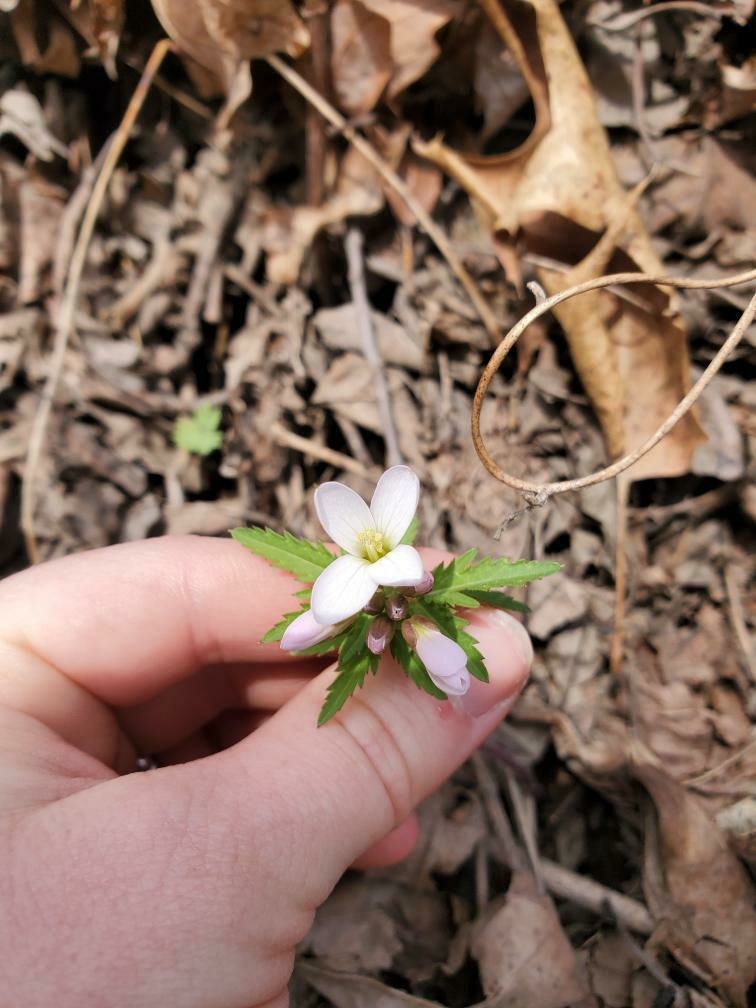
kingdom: Plantae
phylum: Tracheophyta
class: Magnoliopsida
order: Brassicales
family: Brassicaceae
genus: Cardamine
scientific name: Cardamine concatenata
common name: Cut-leaf toothcup
